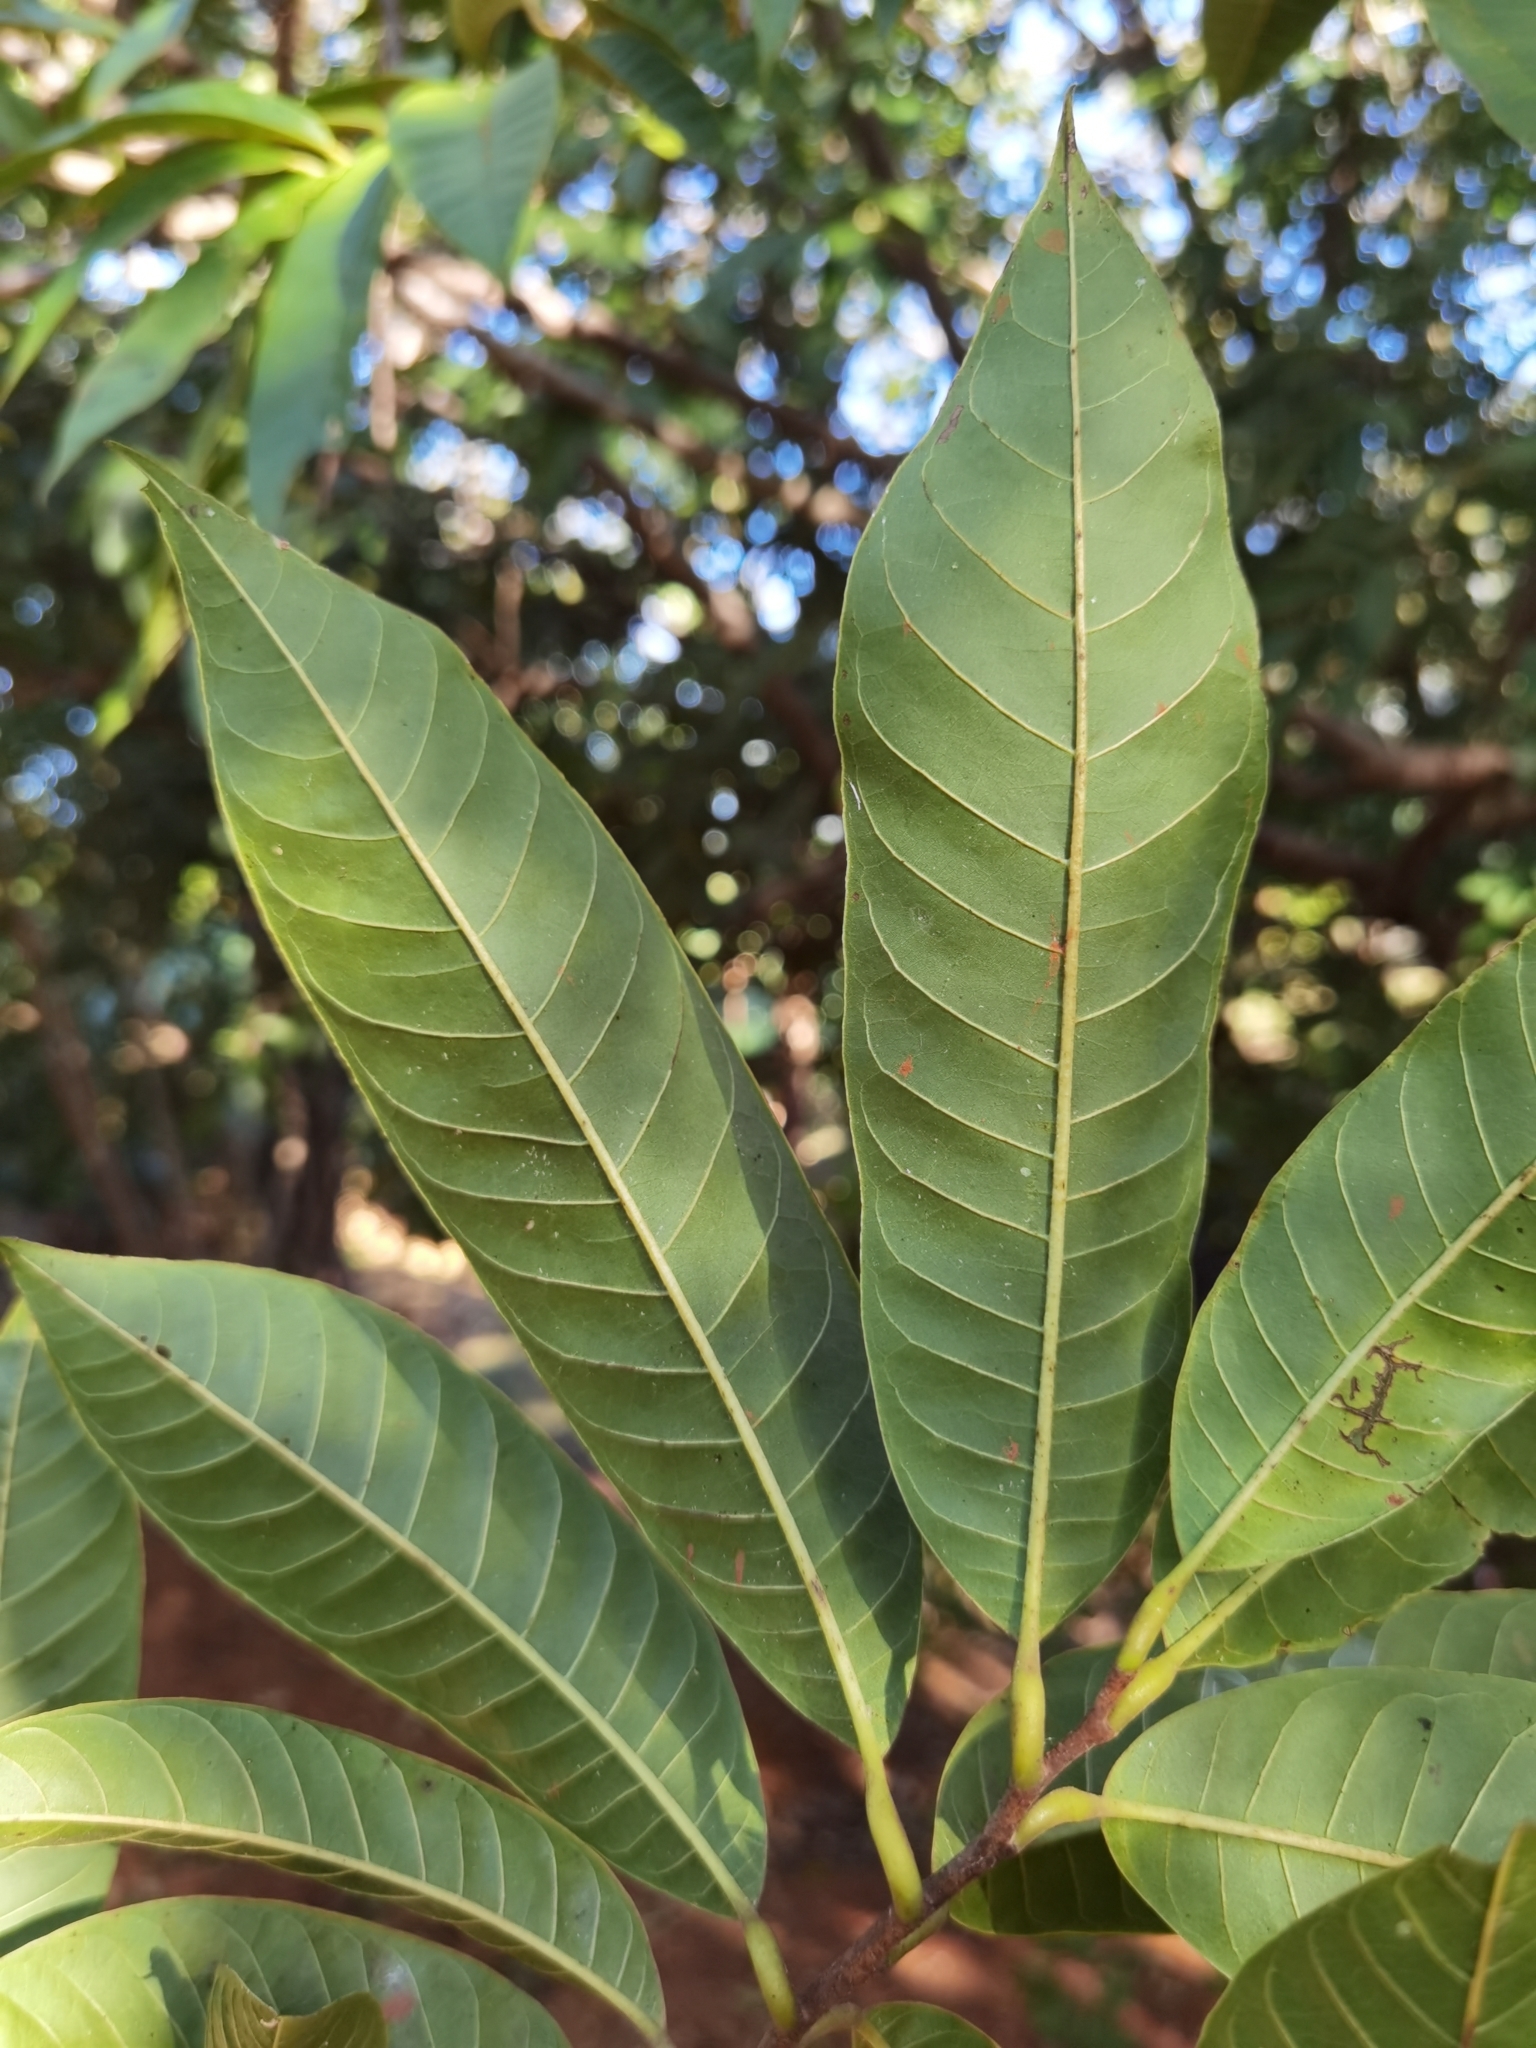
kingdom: Plantae
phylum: Tracheophyta
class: Magnoliopsida
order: Magnoliales
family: Annonaceae
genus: Annona
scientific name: Annona reticulata
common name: Custard apple
